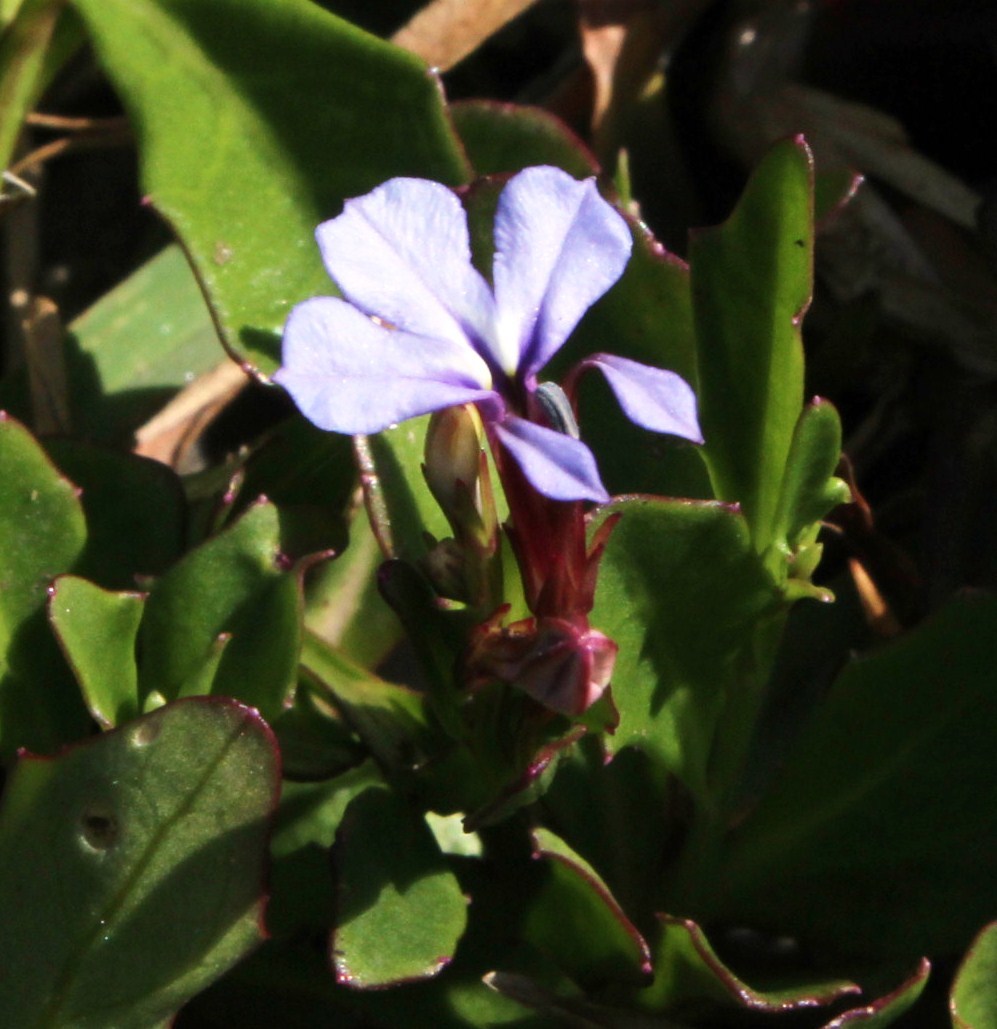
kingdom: Plantae
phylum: Tracheophyta
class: Magnoliopsida
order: Asterales
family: Campanulaceae
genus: Lobelia
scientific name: Lobelia anceps
